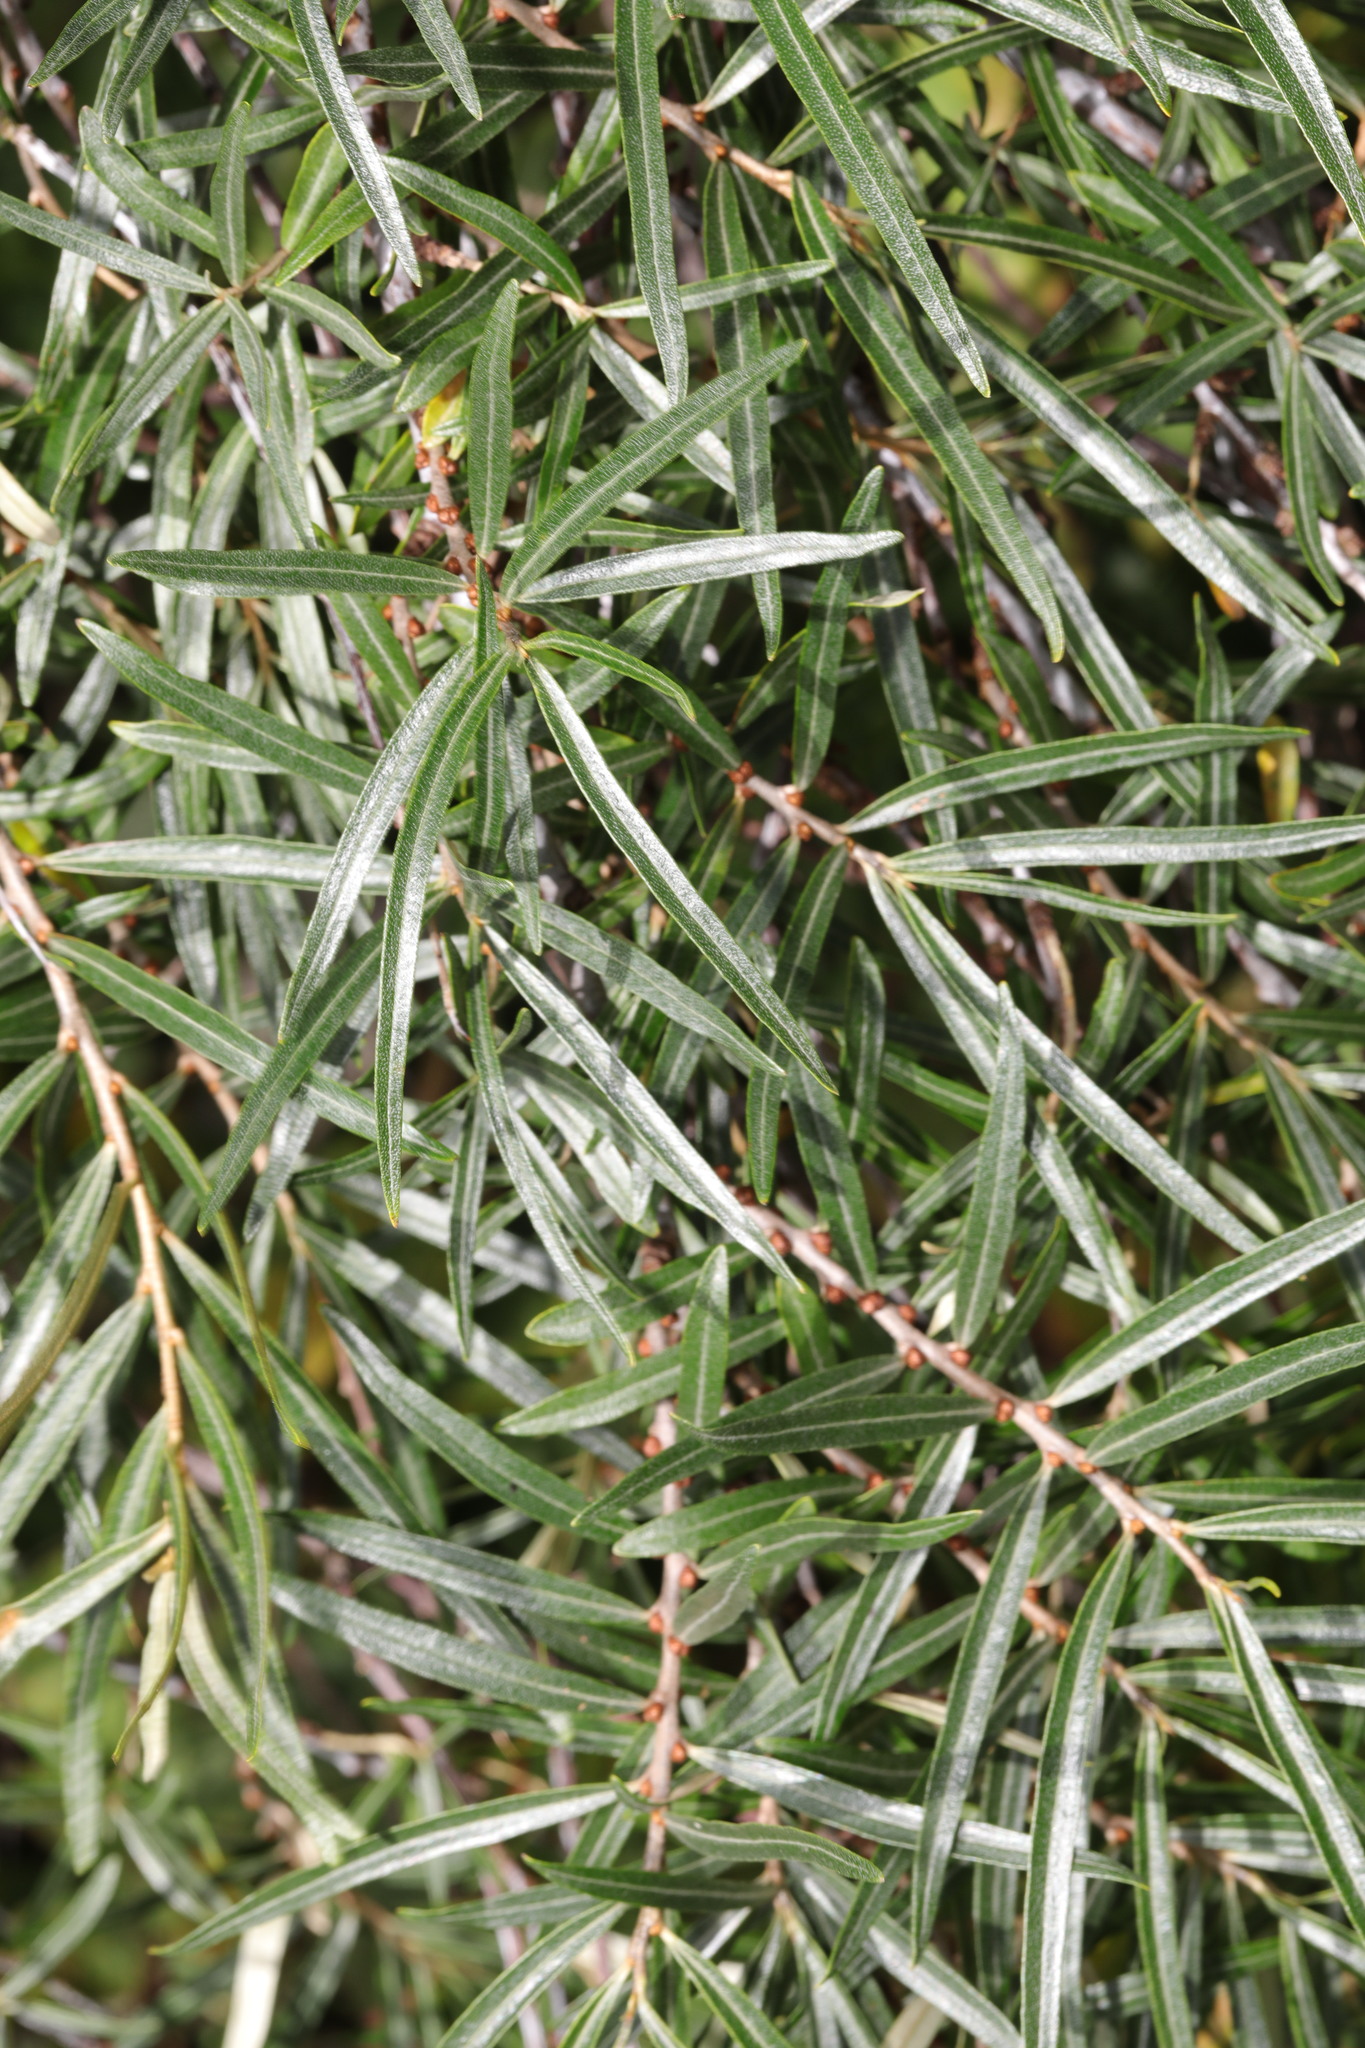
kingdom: Plantae
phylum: Tracheophyta
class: Magnoliopsida
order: Rosales
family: Elaeagnaceae
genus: Hippophae
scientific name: Hippophae rhamnoides
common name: Sea-buckthorn
